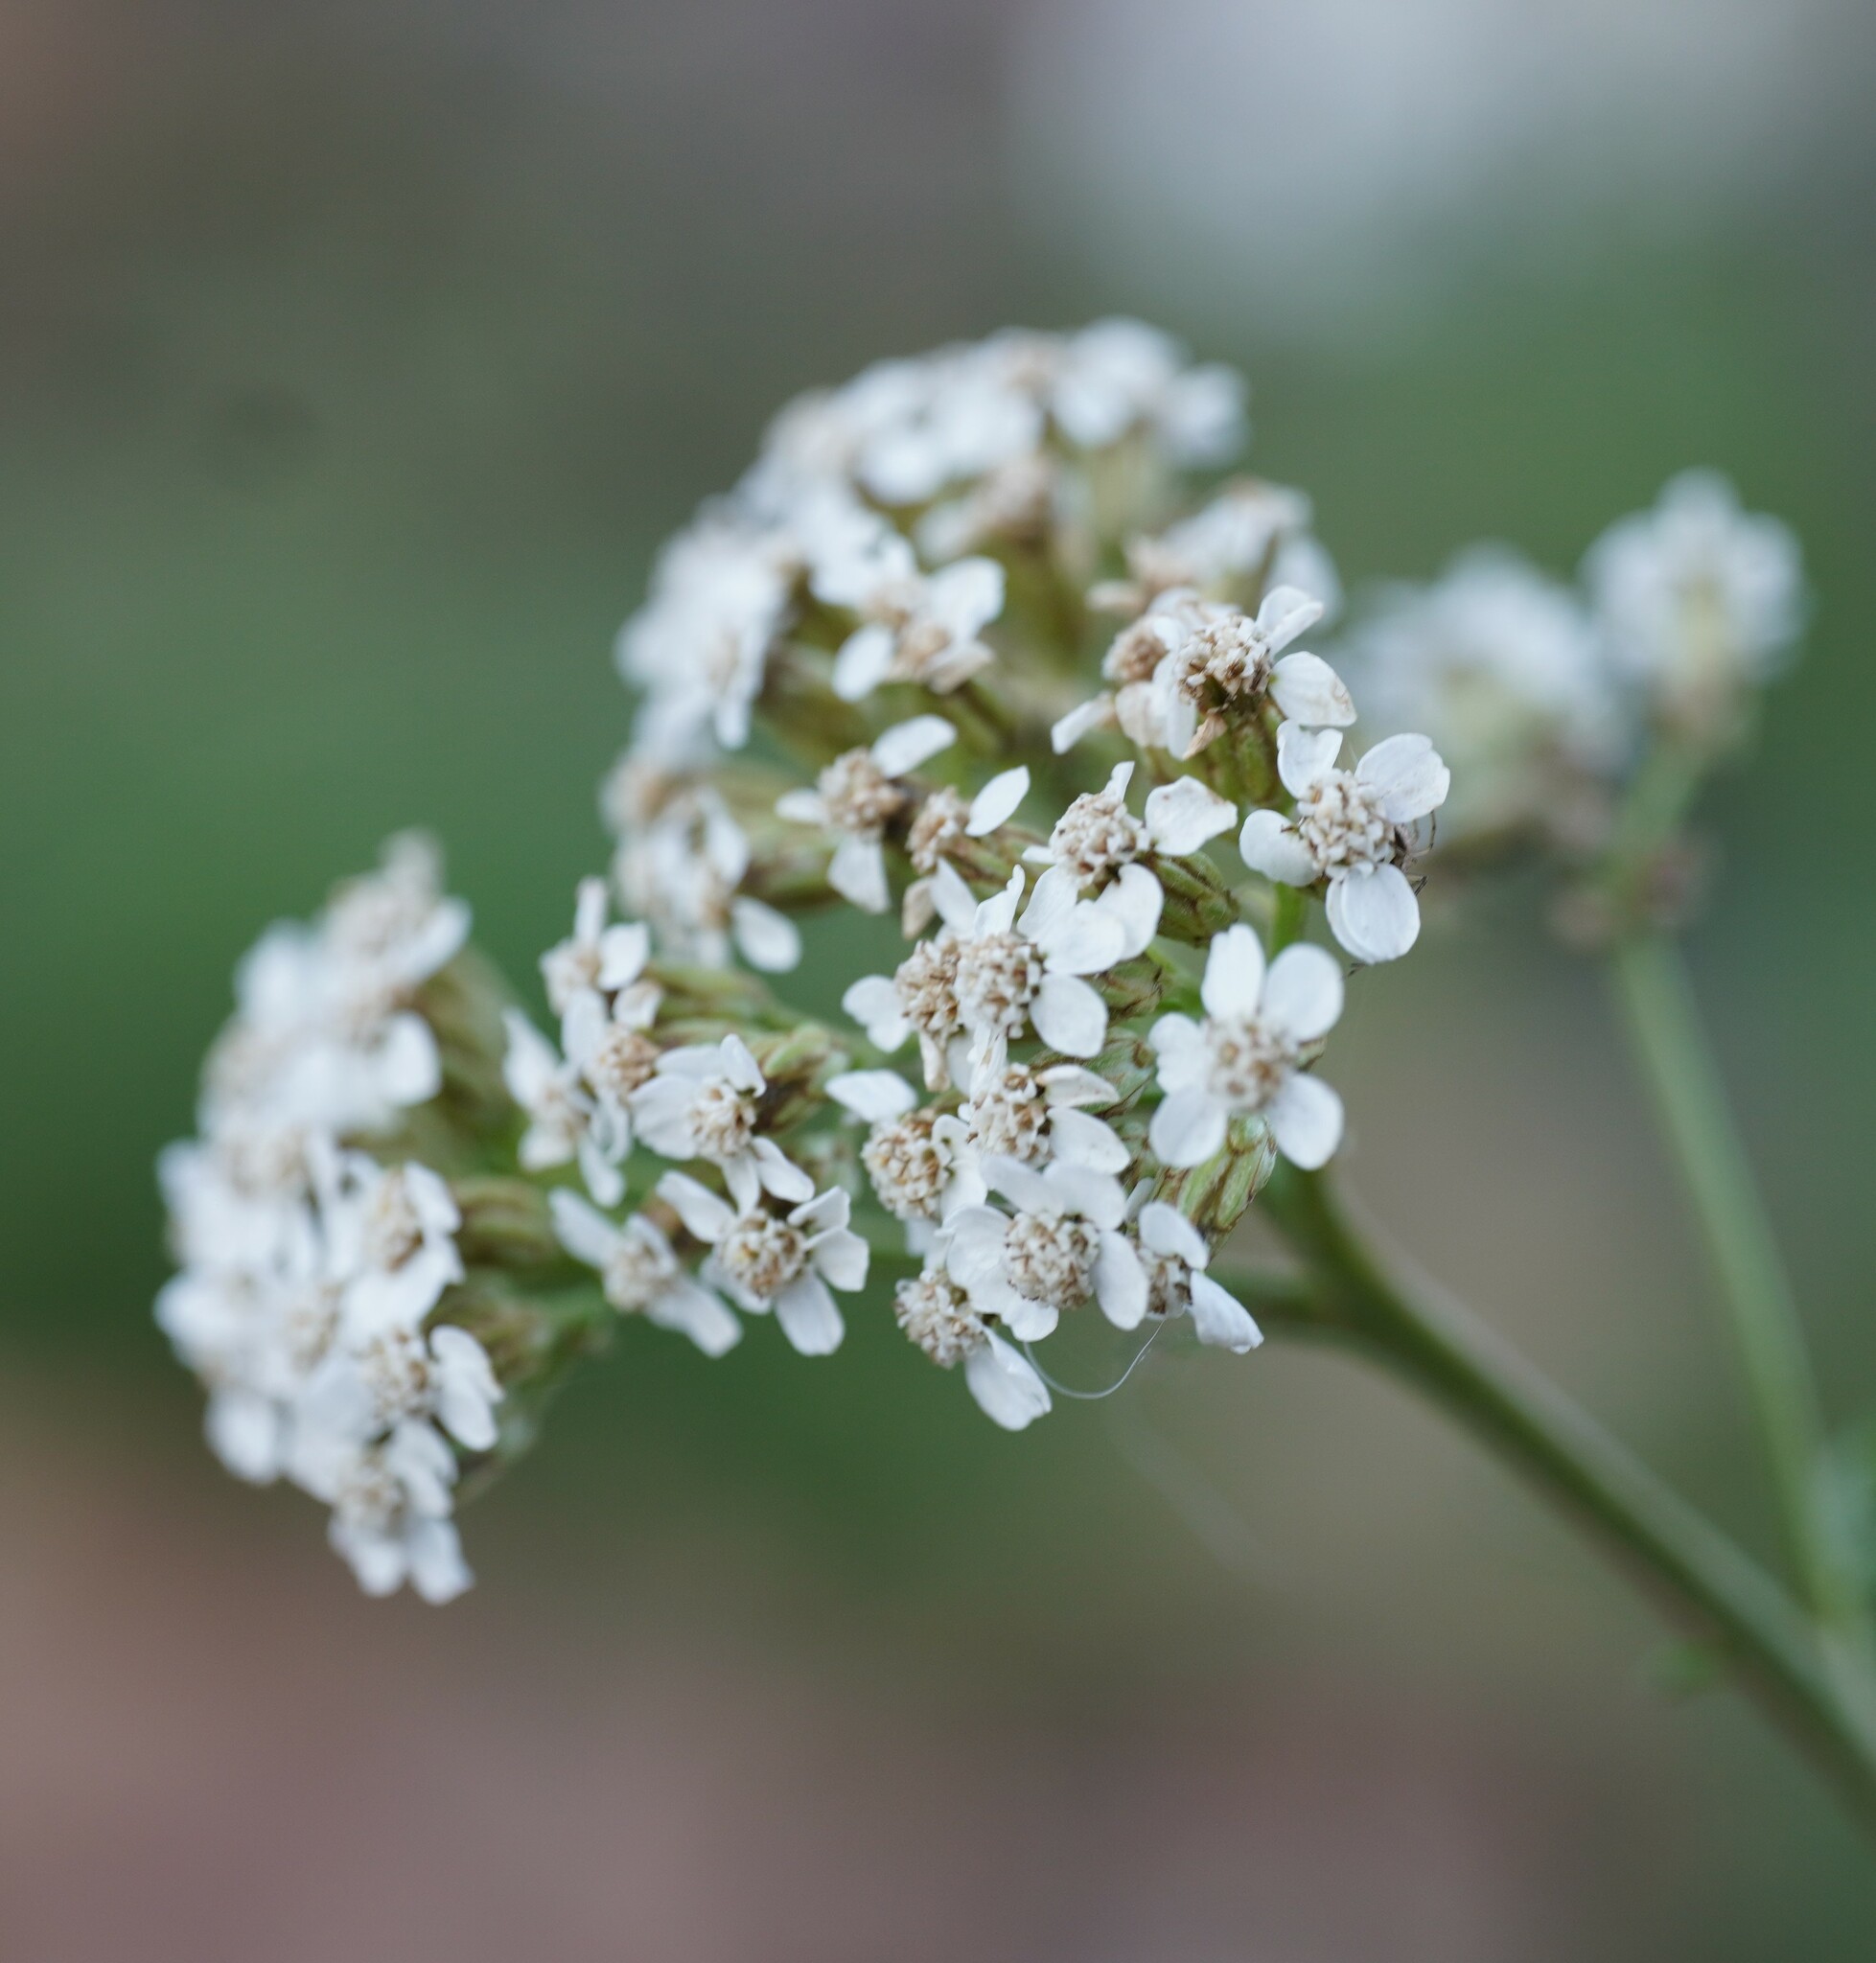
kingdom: Plantae
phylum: Tracheophyta
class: Magnoliopsida
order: Asterales
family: Asteraceae
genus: Achillea
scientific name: Achillea millefolium
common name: Yarrow
